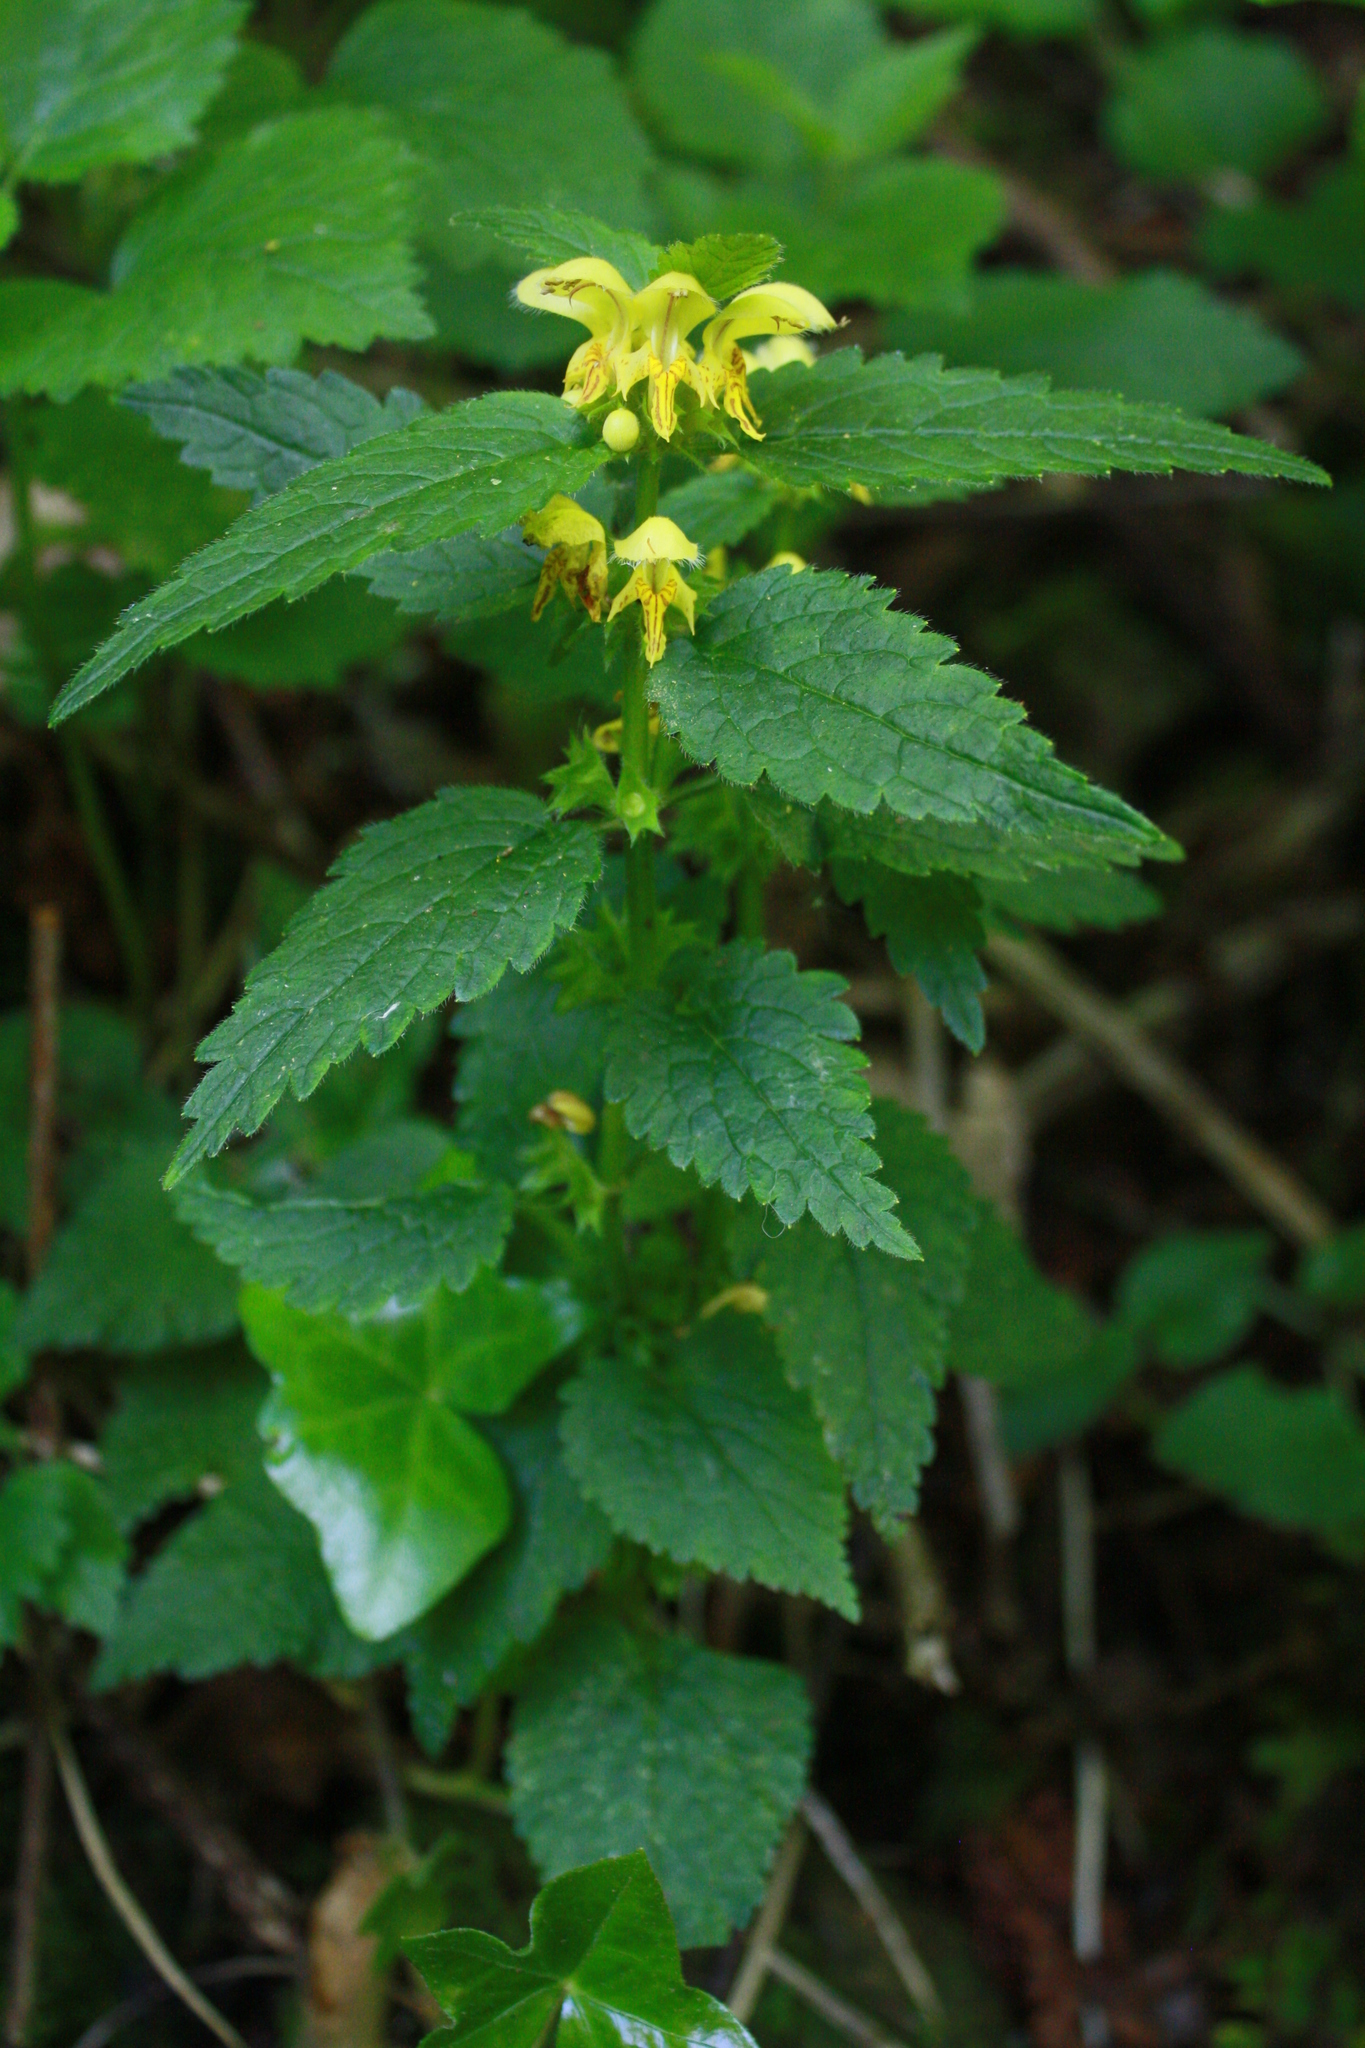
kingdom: Plantae
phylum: Tracheophyta
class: Magnoliopsida
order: Lamiales
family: Lamiaceae
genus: Lamium
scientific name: Lamium galeobdolon
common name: Yellow archangel
